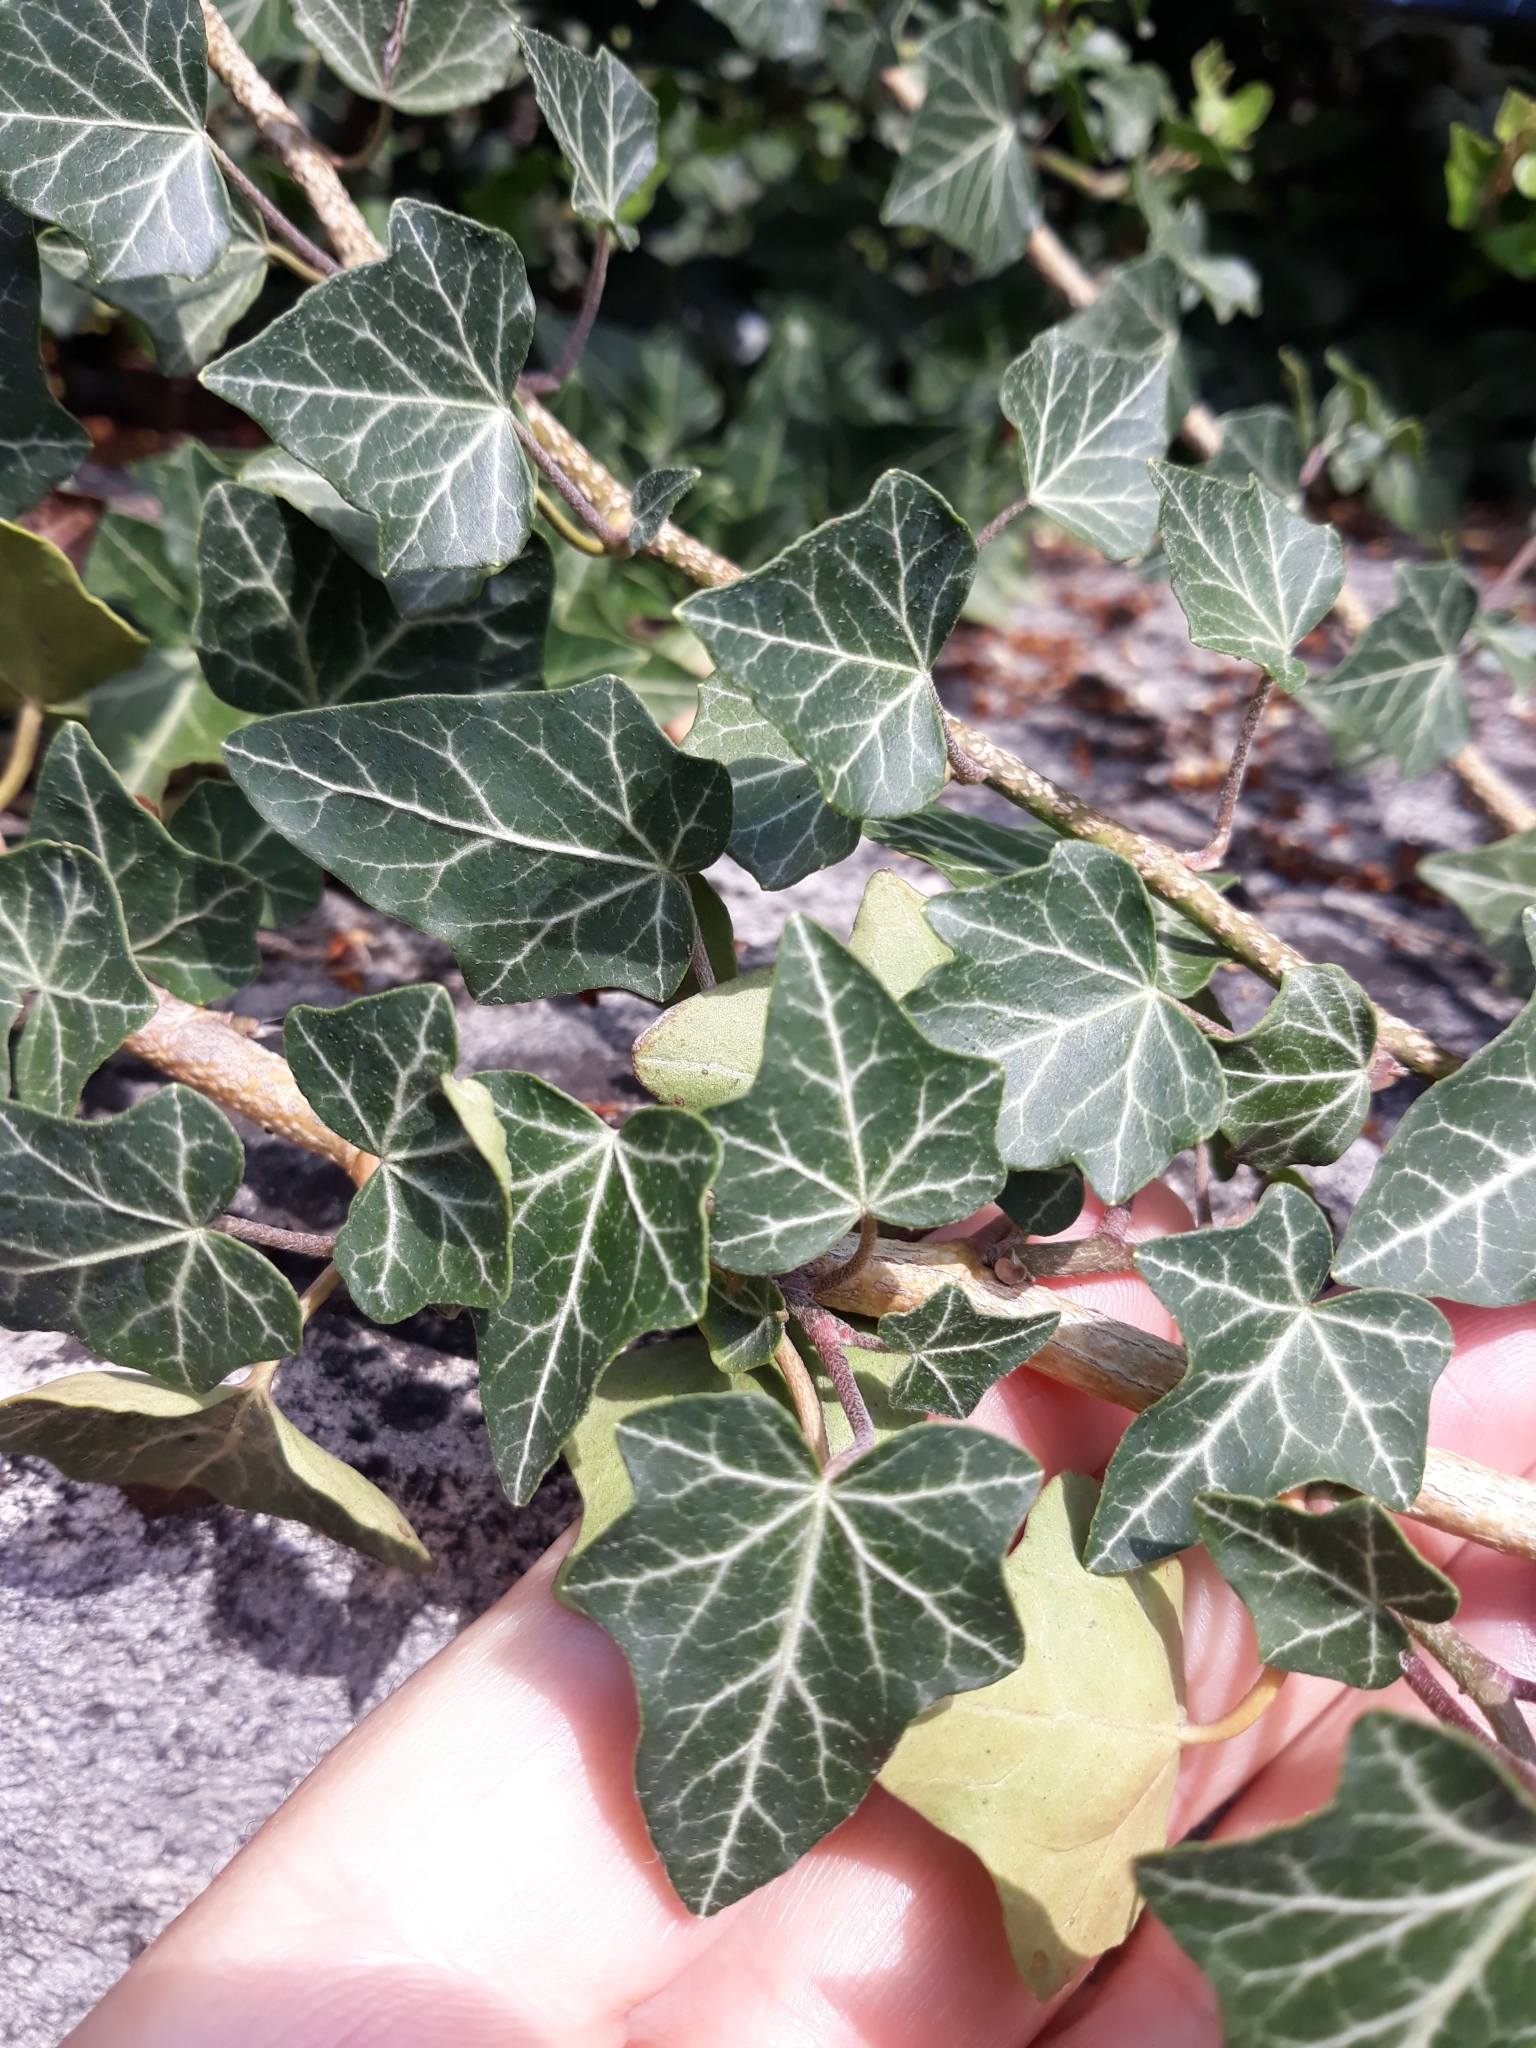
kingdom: Plantae
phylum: Tracheophyta
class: Magnoliopsida
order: Apiales
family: Araliaceae
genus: Hedera
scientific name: Hedera helix
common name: Ivy
